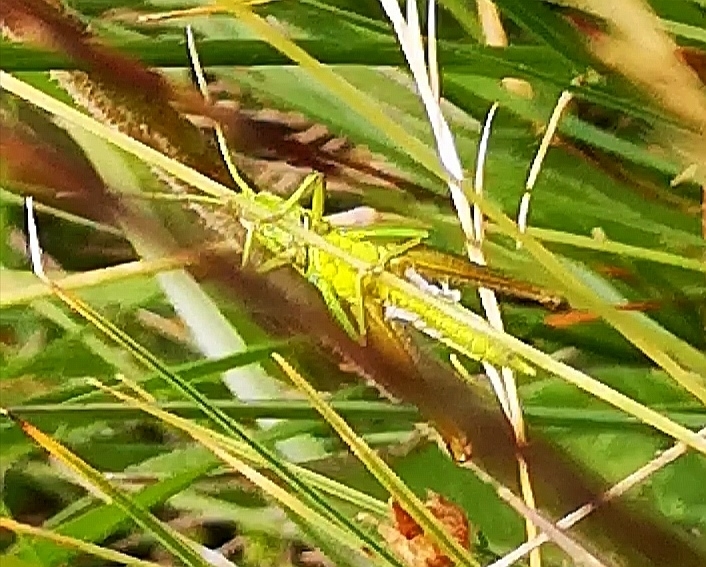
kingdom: Animalia
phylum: Arthropoda
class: Insecta
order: Orthoptera
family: Acrididae
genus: Euthystira
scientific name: Euthystira brachyptera
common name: Small gold grasshopper
